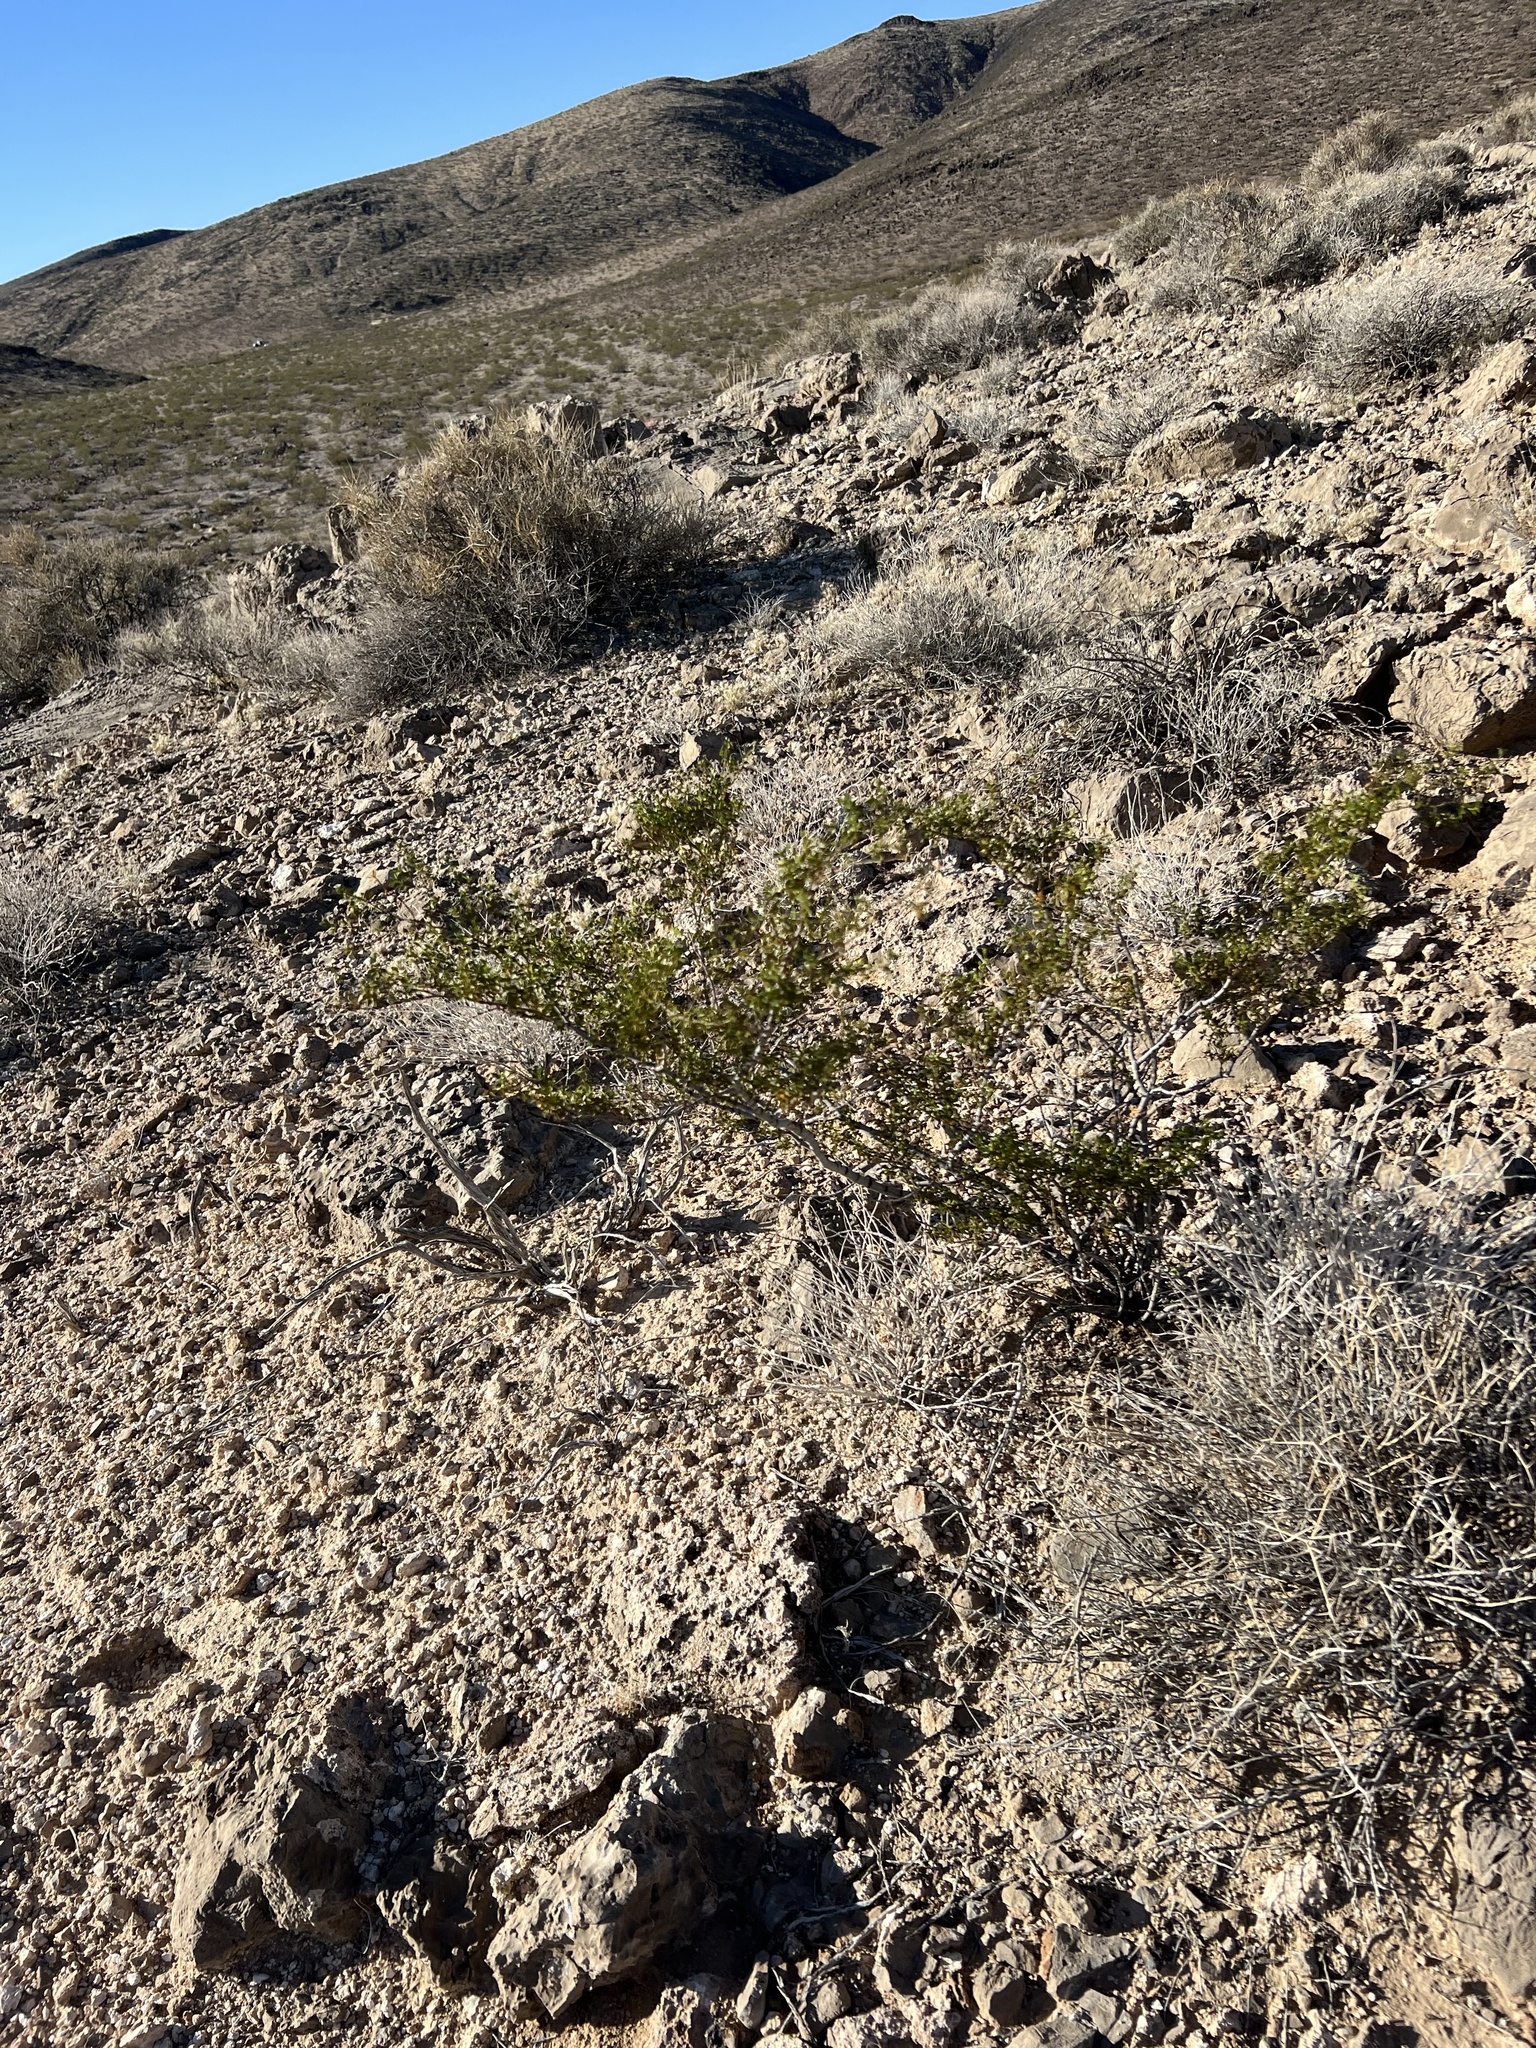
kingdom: Plantae
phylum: Tracheophyta
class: Magnoliopsida
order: Zygophyllales
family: Zygophyllaceae
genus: Larrea
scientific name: Larrea tridentata
